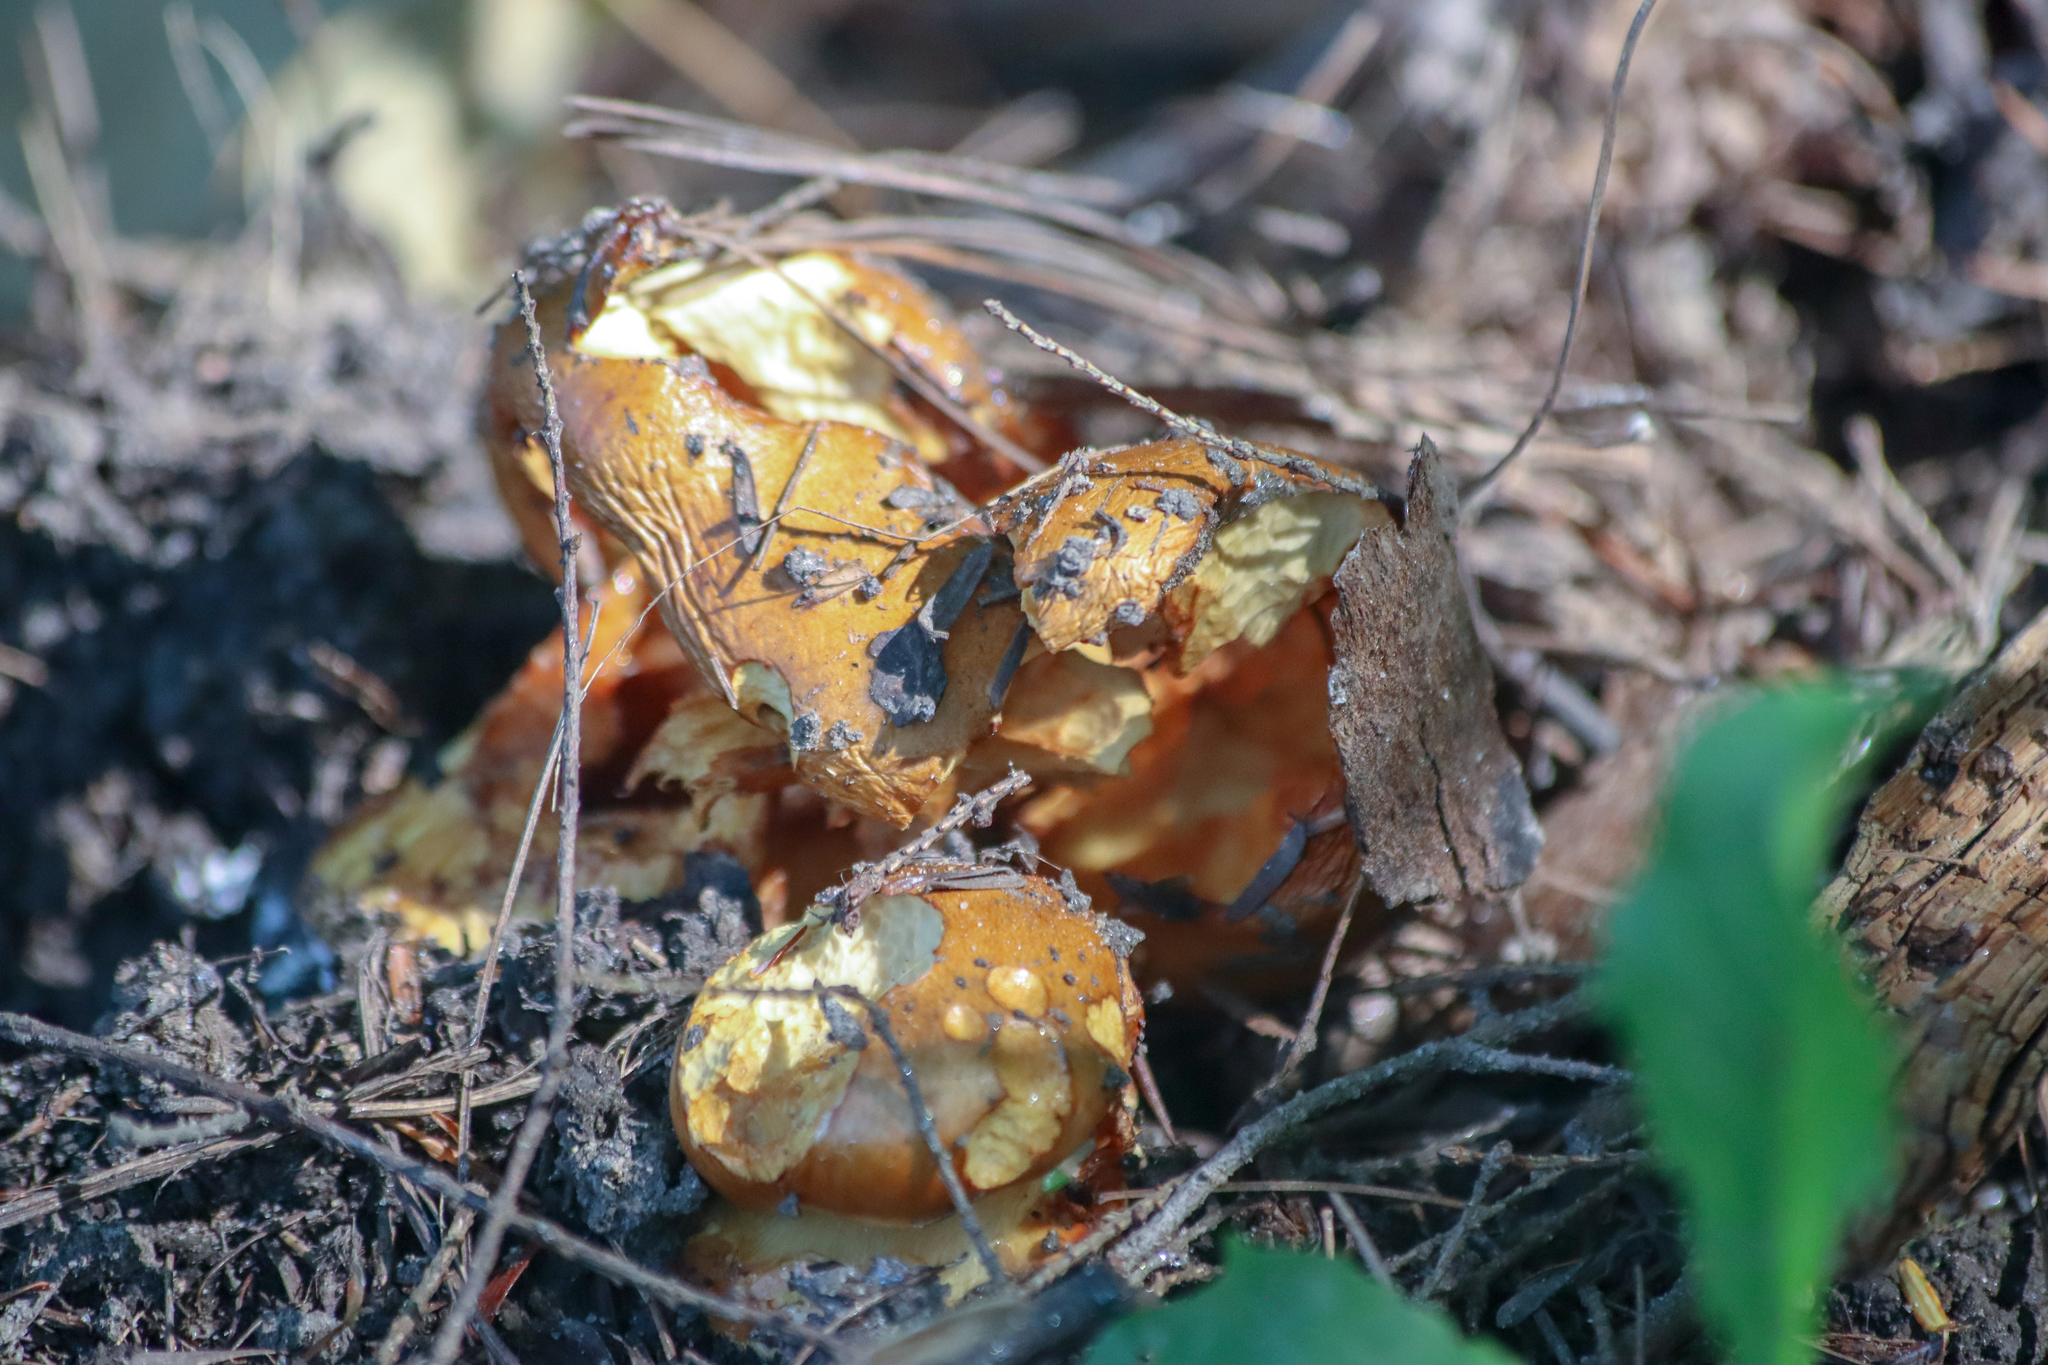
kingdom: Fungi
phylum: Ascomycota
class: Sordariomycetes
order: Hypocreales
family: Hypocreaceae
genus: Hypomyces
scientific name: Hypomyces lactifluorum
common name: Lobster mushroom
